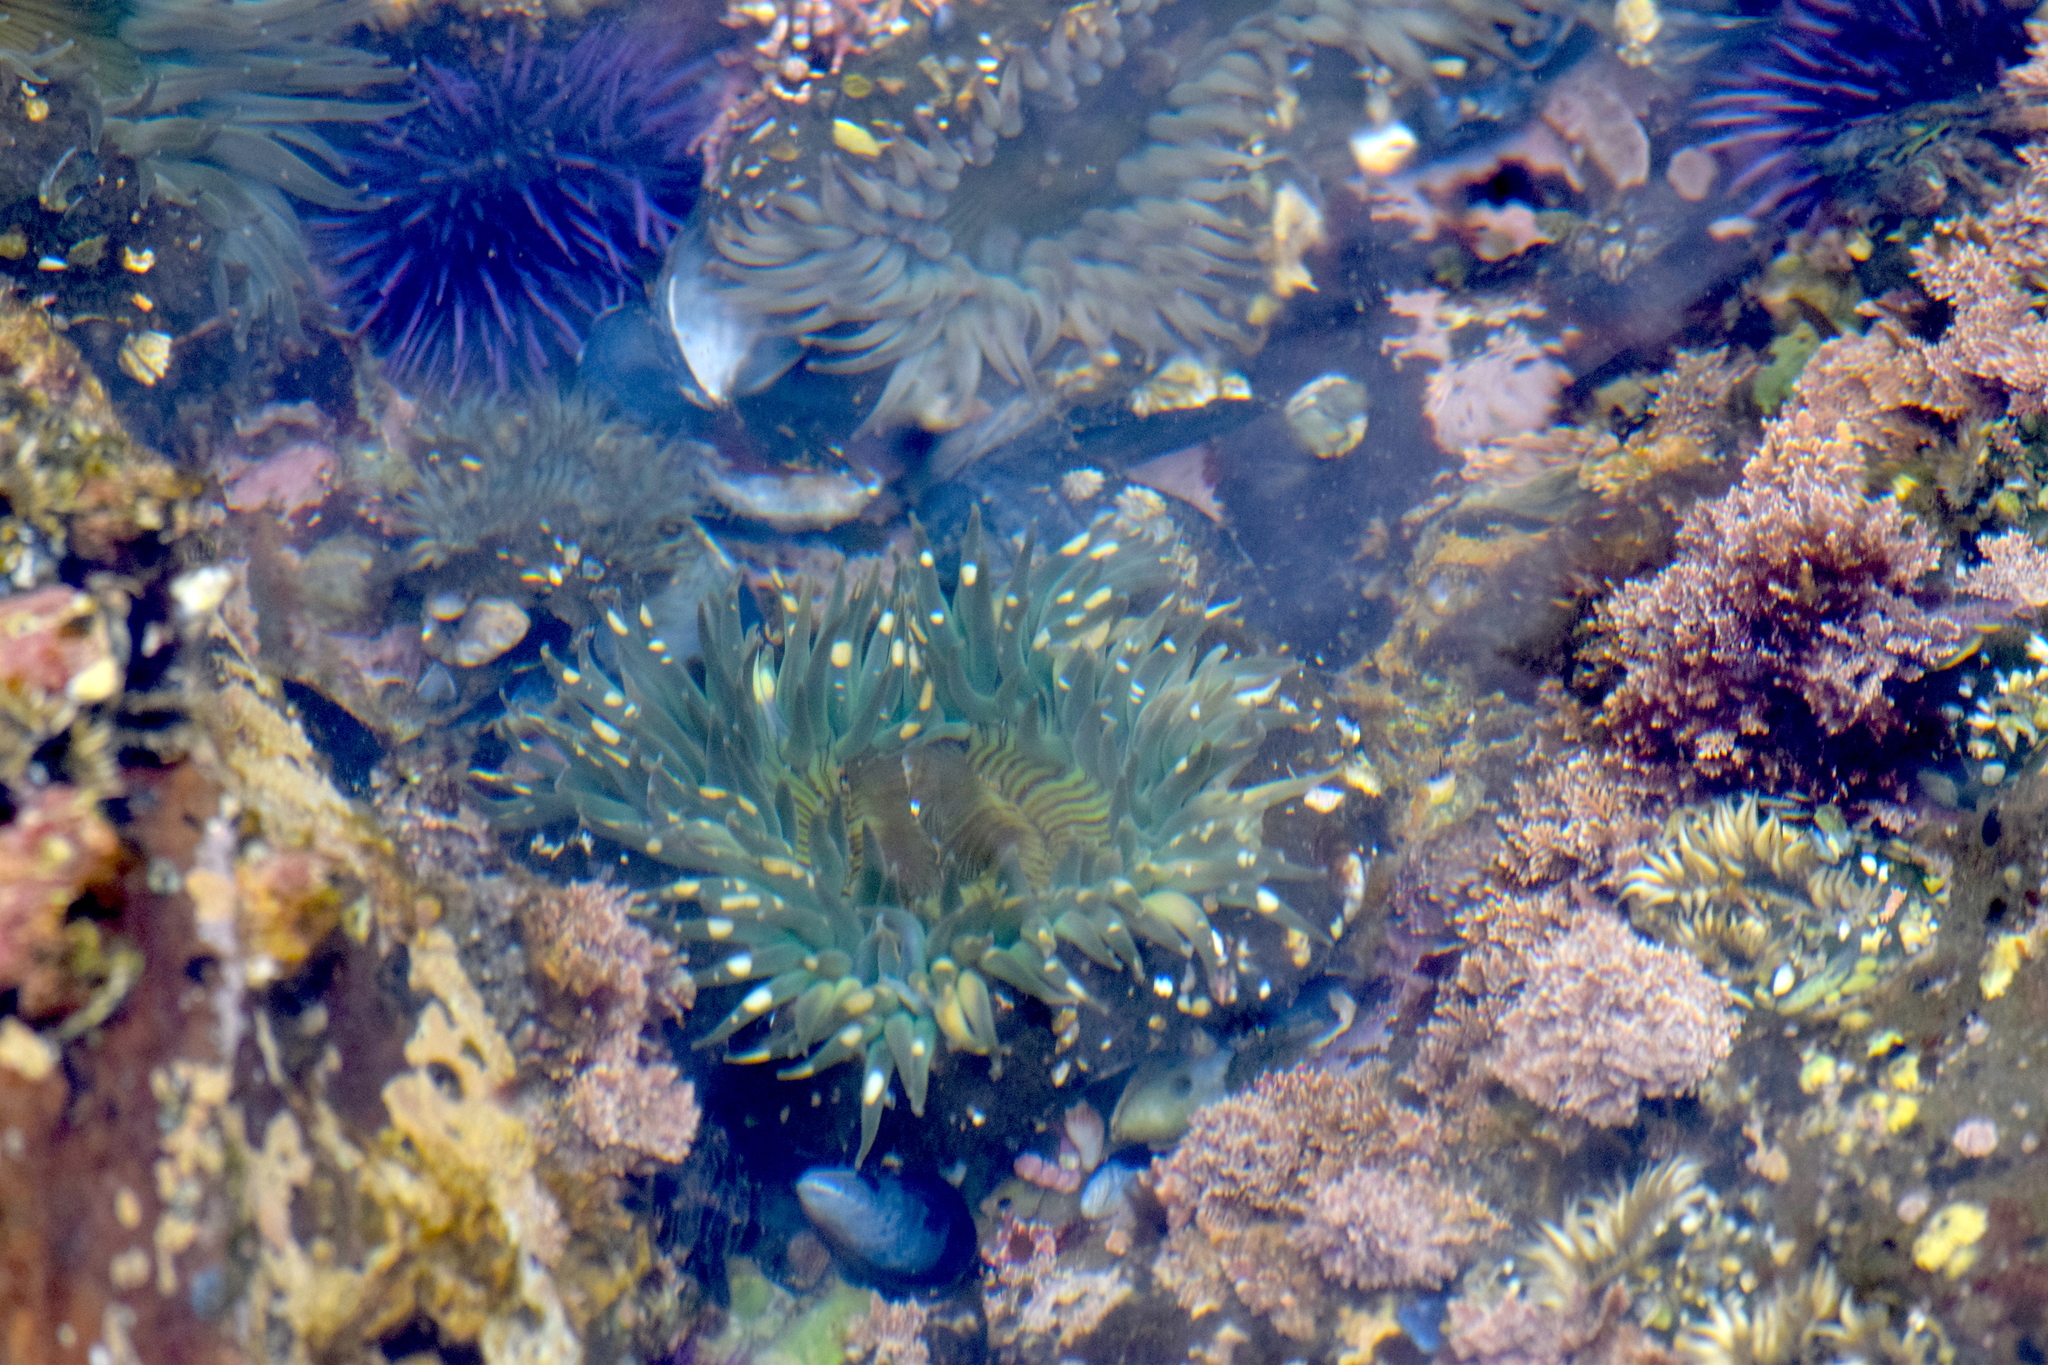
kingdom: Animalia
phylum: Cnidaria
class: Anthozoa
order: Actiniaria
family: Actiniidae
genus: Anthopleura
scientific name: Anthopleura sola
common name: Sun anemone
